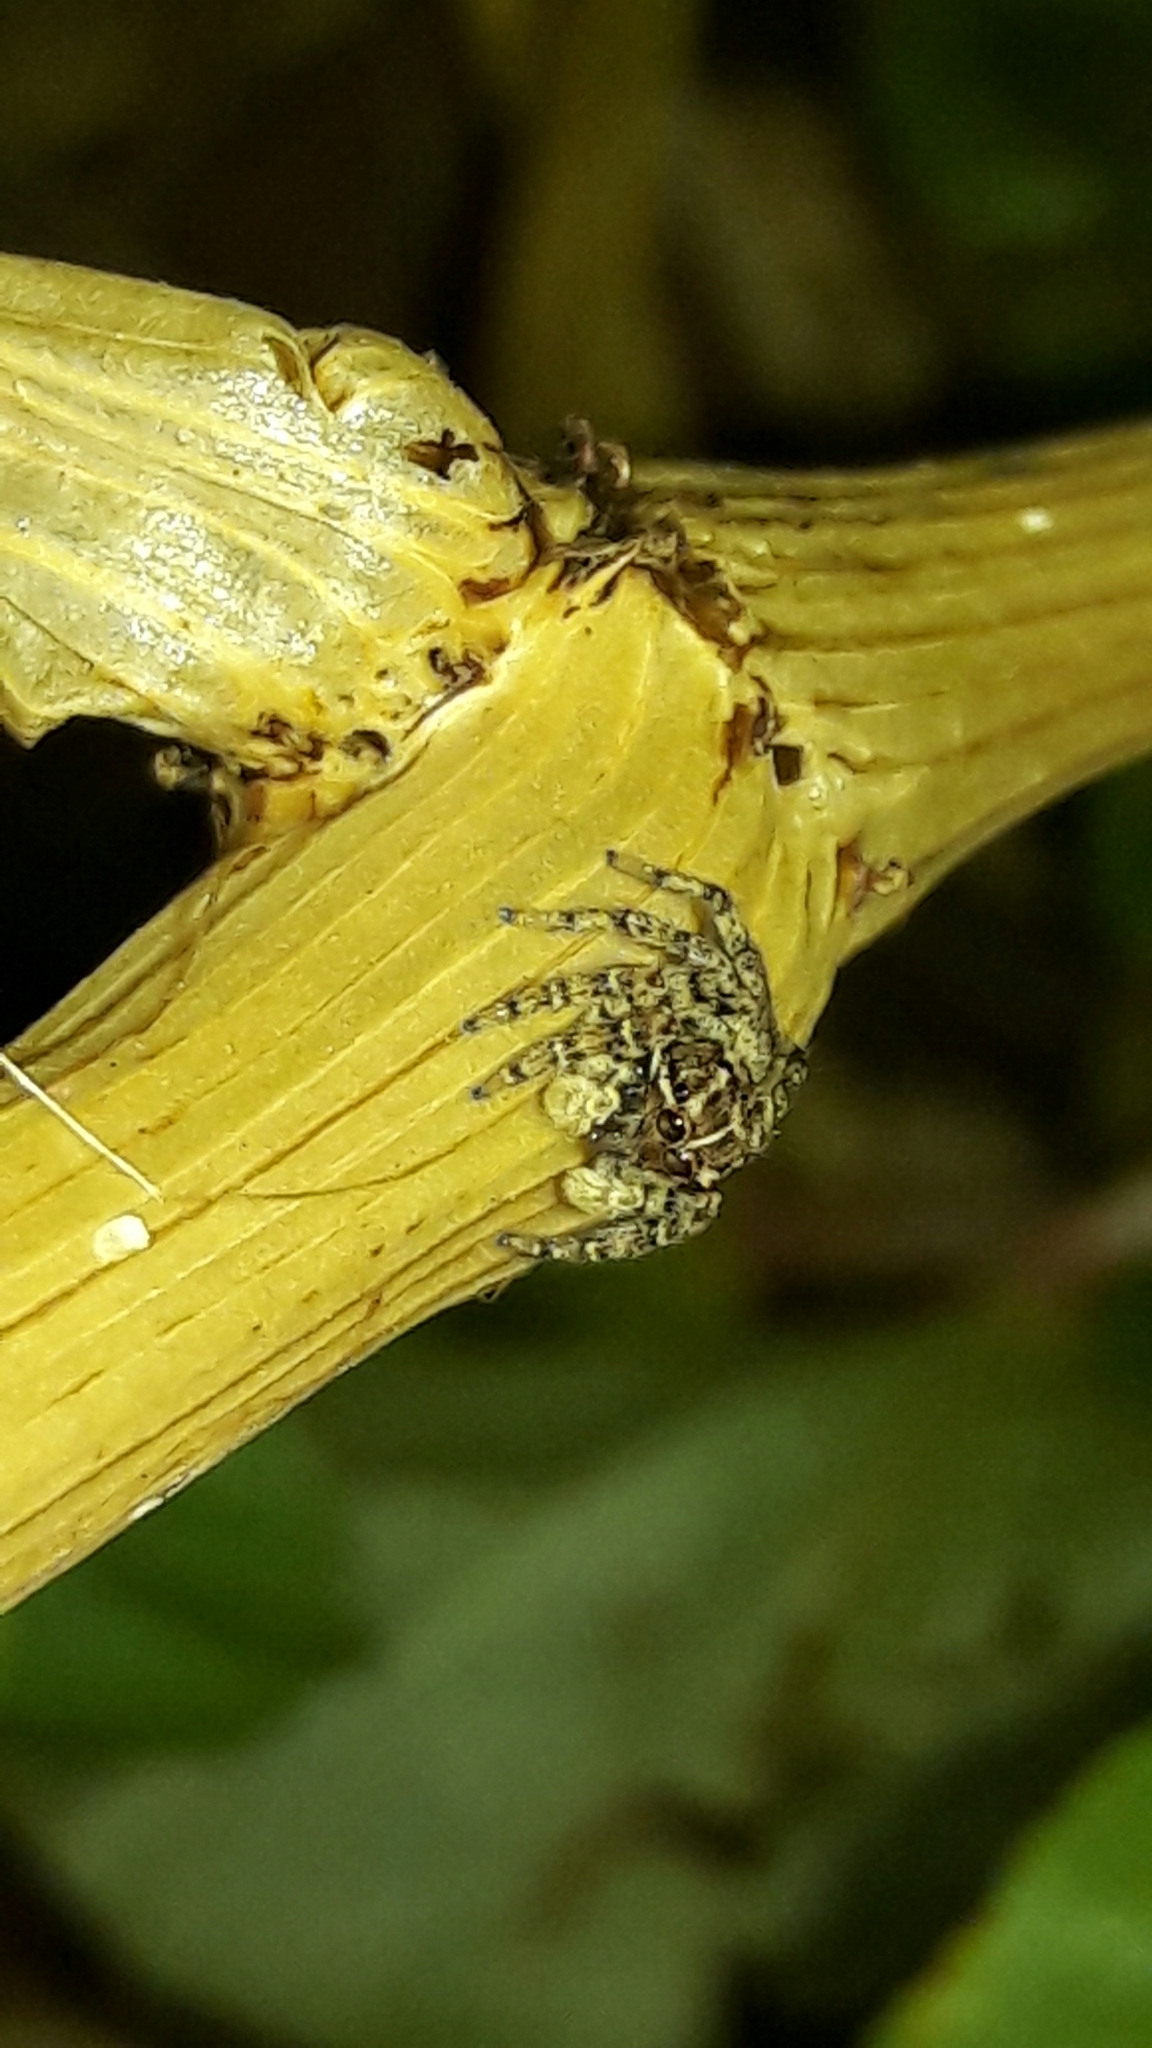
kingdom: Animalia
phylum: Arthropoda
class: Arachnida
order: Araneae
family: Salticidae
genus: Sumampattus
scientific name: Sumampattus quinqueradiatus
